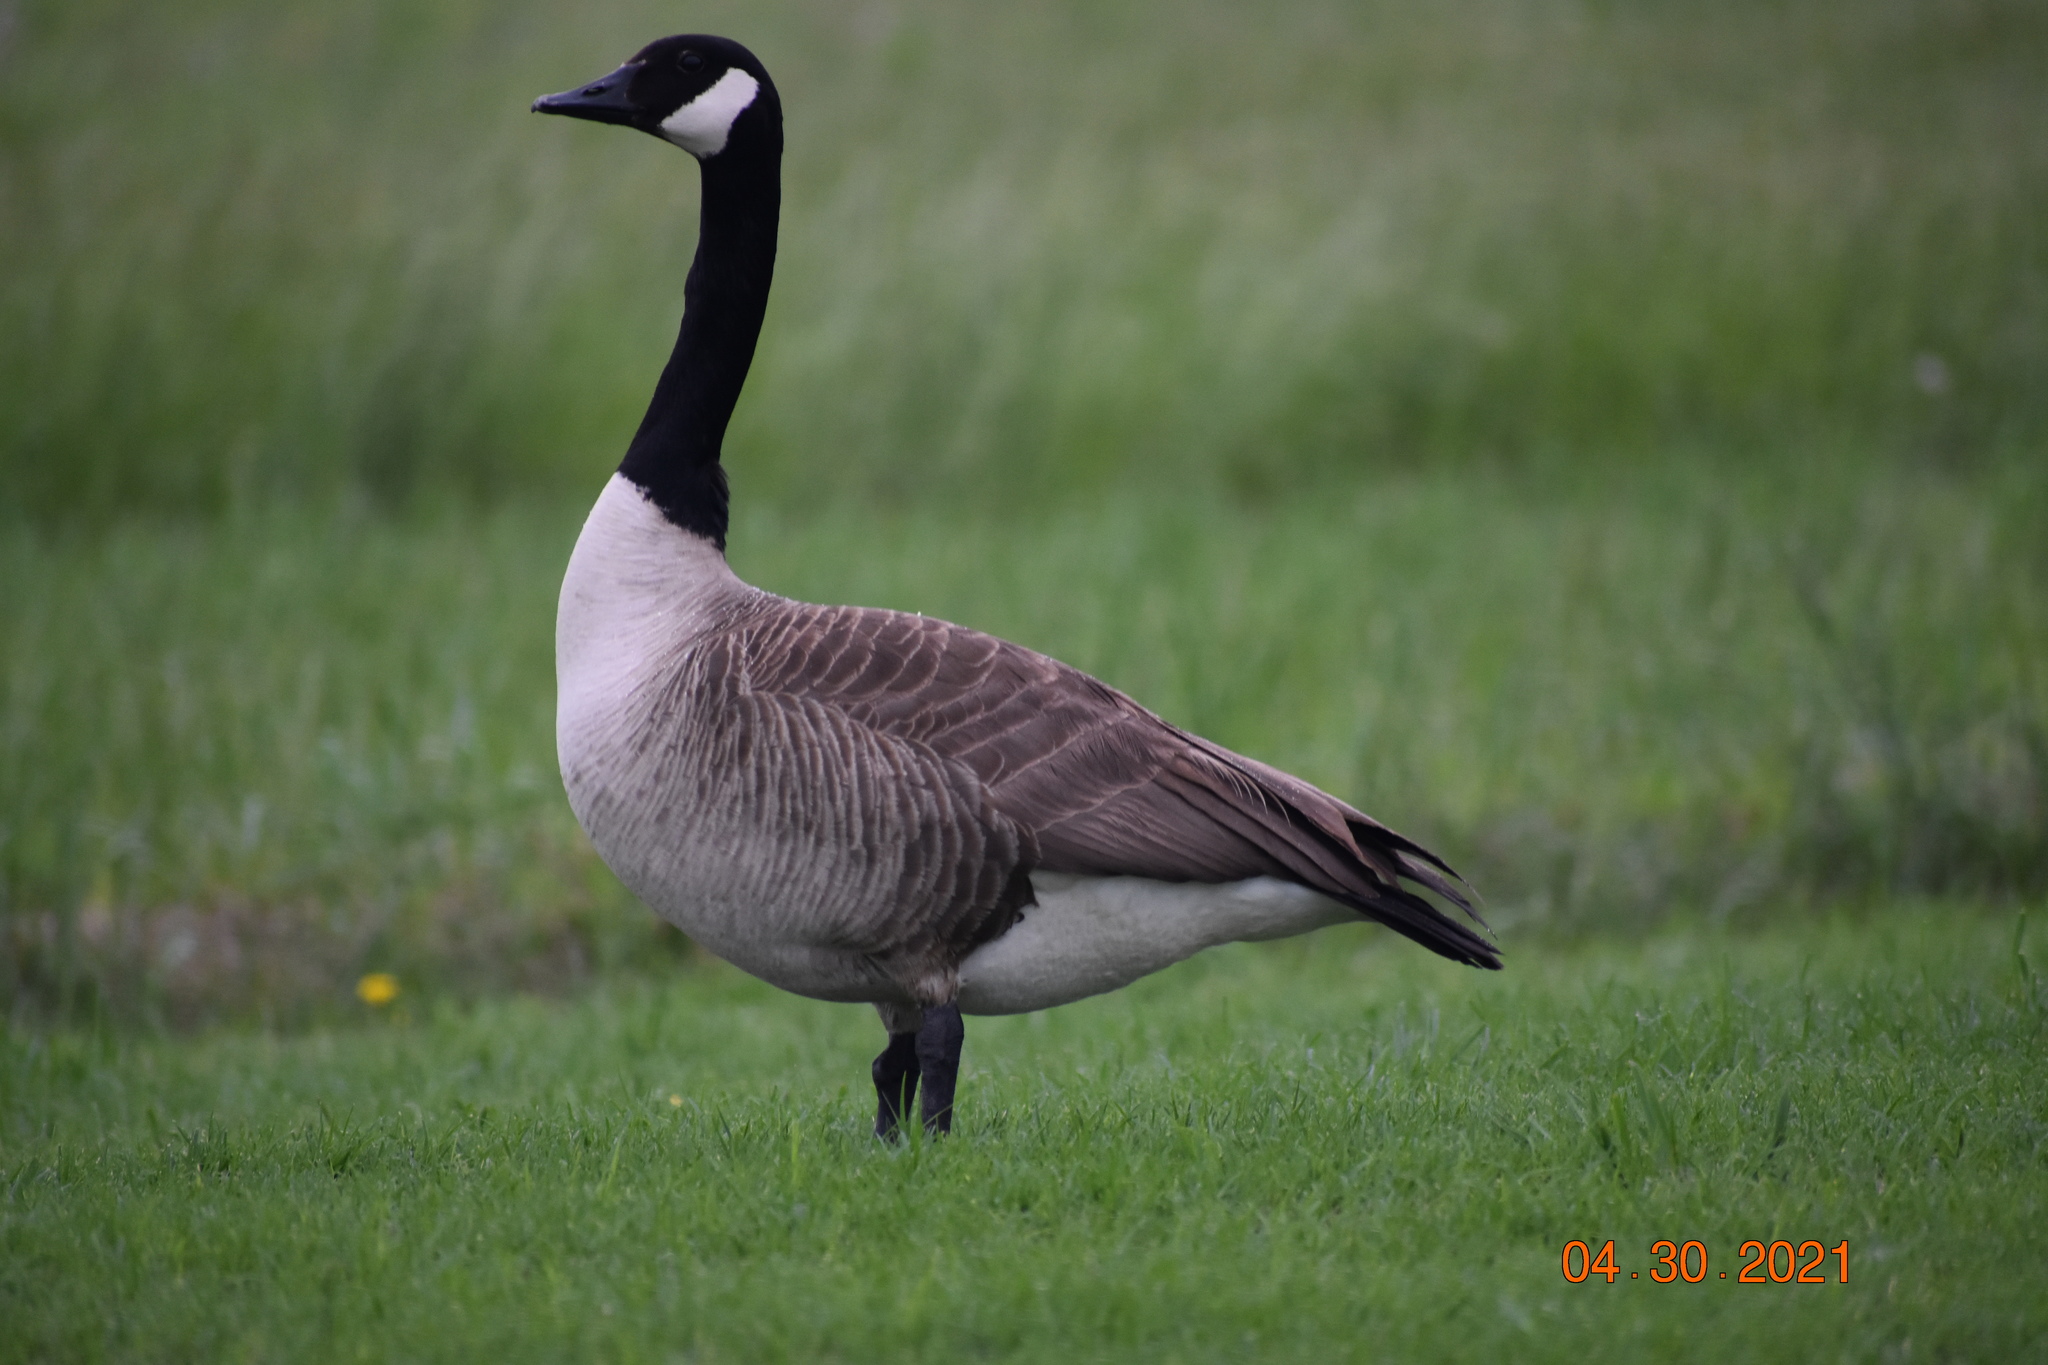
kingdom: Animalia
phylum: Chordata
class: Aves
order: Anseriformes
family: Anatidae
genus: Branta
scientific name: Branta canadensis
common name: Canada goose
